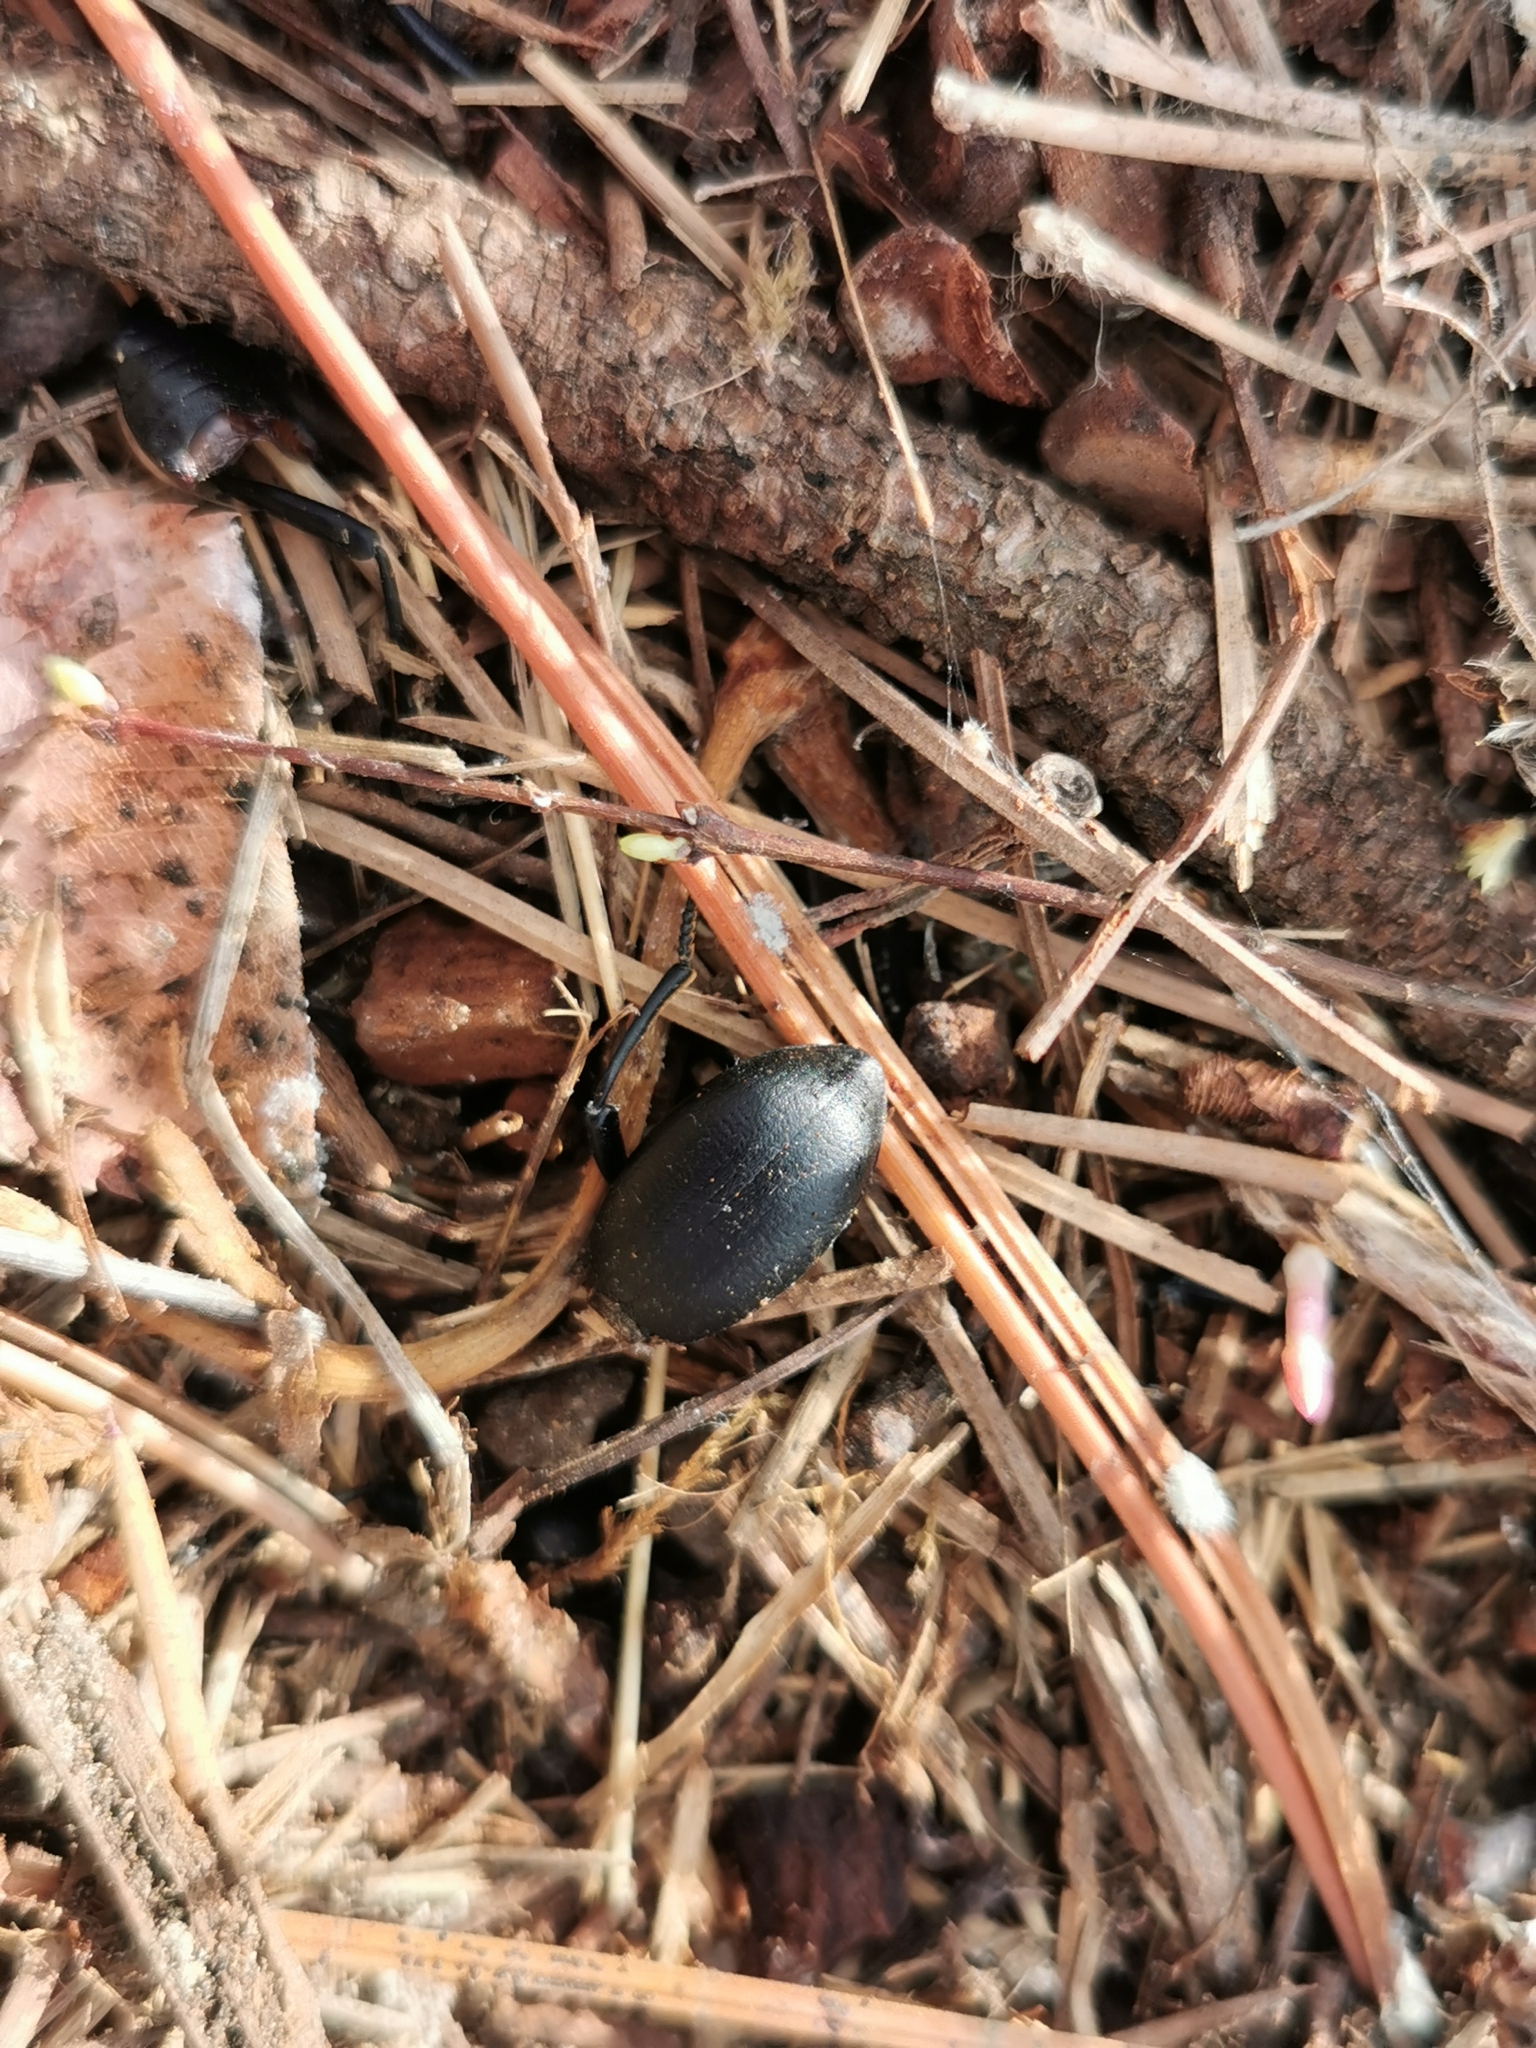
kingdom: Animalia
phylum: Arthropoda
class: Insecta
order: Coleoptera
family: Tenebrionidae
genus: Coelocnemis
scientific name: Coelocnemis dilaticollis
